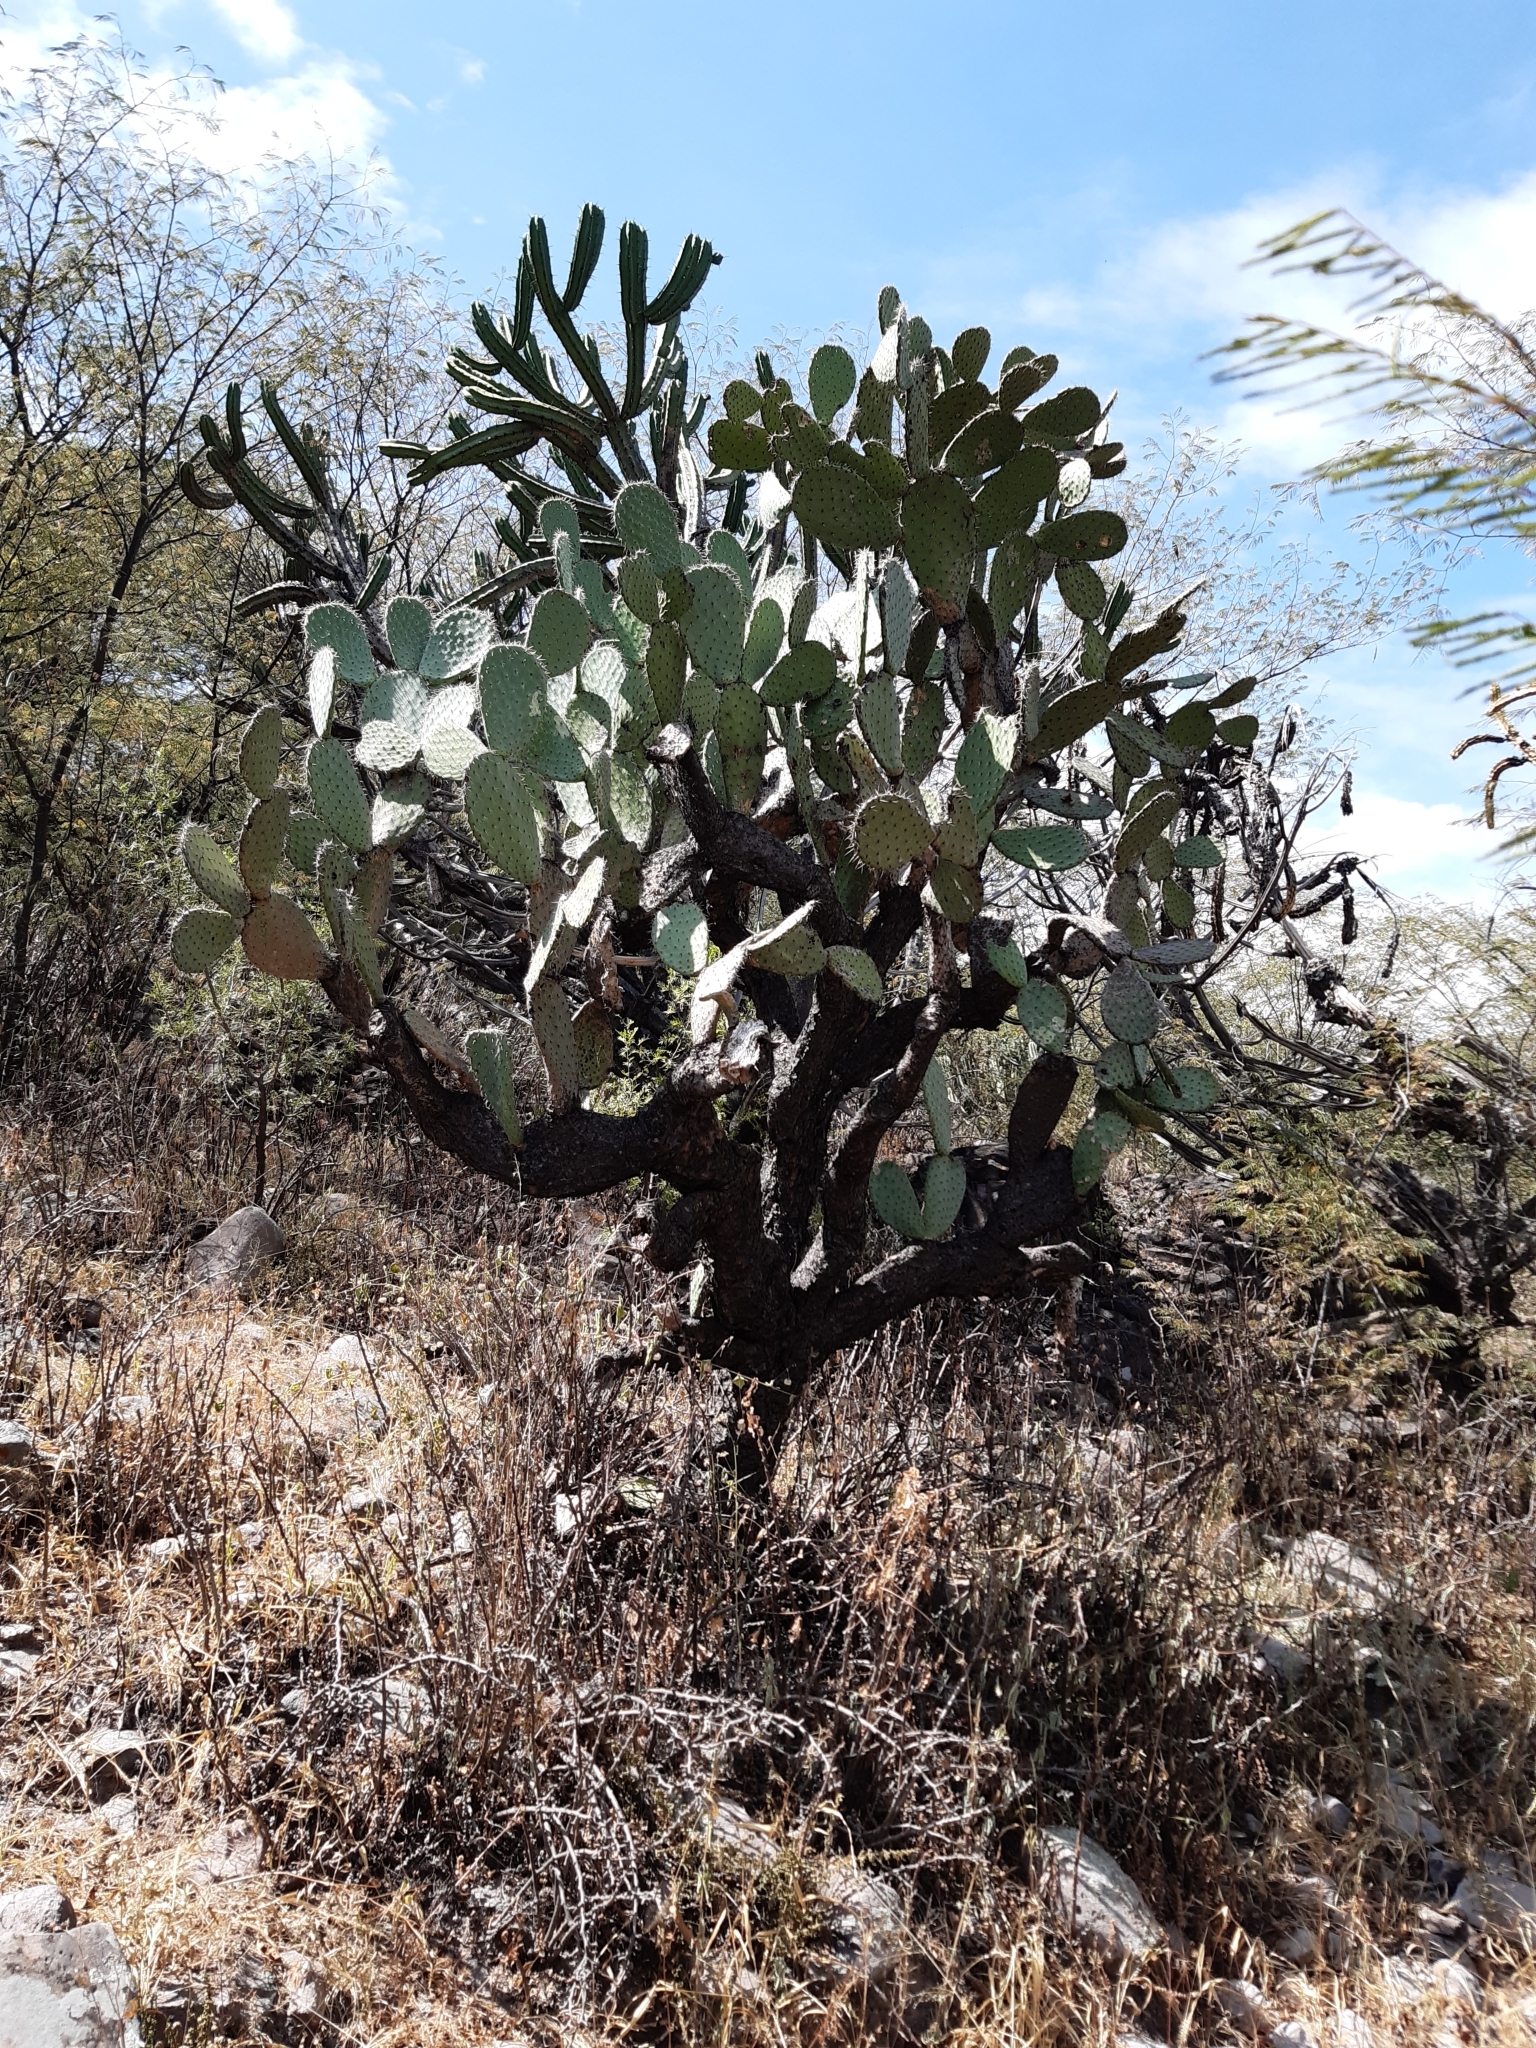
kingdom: Plantae
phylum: Tracheophyta
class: Magnoliopsida
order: Caryophyllales
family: Cactaceae
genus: Opuntia
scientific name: Opuntia hyptiacantha
